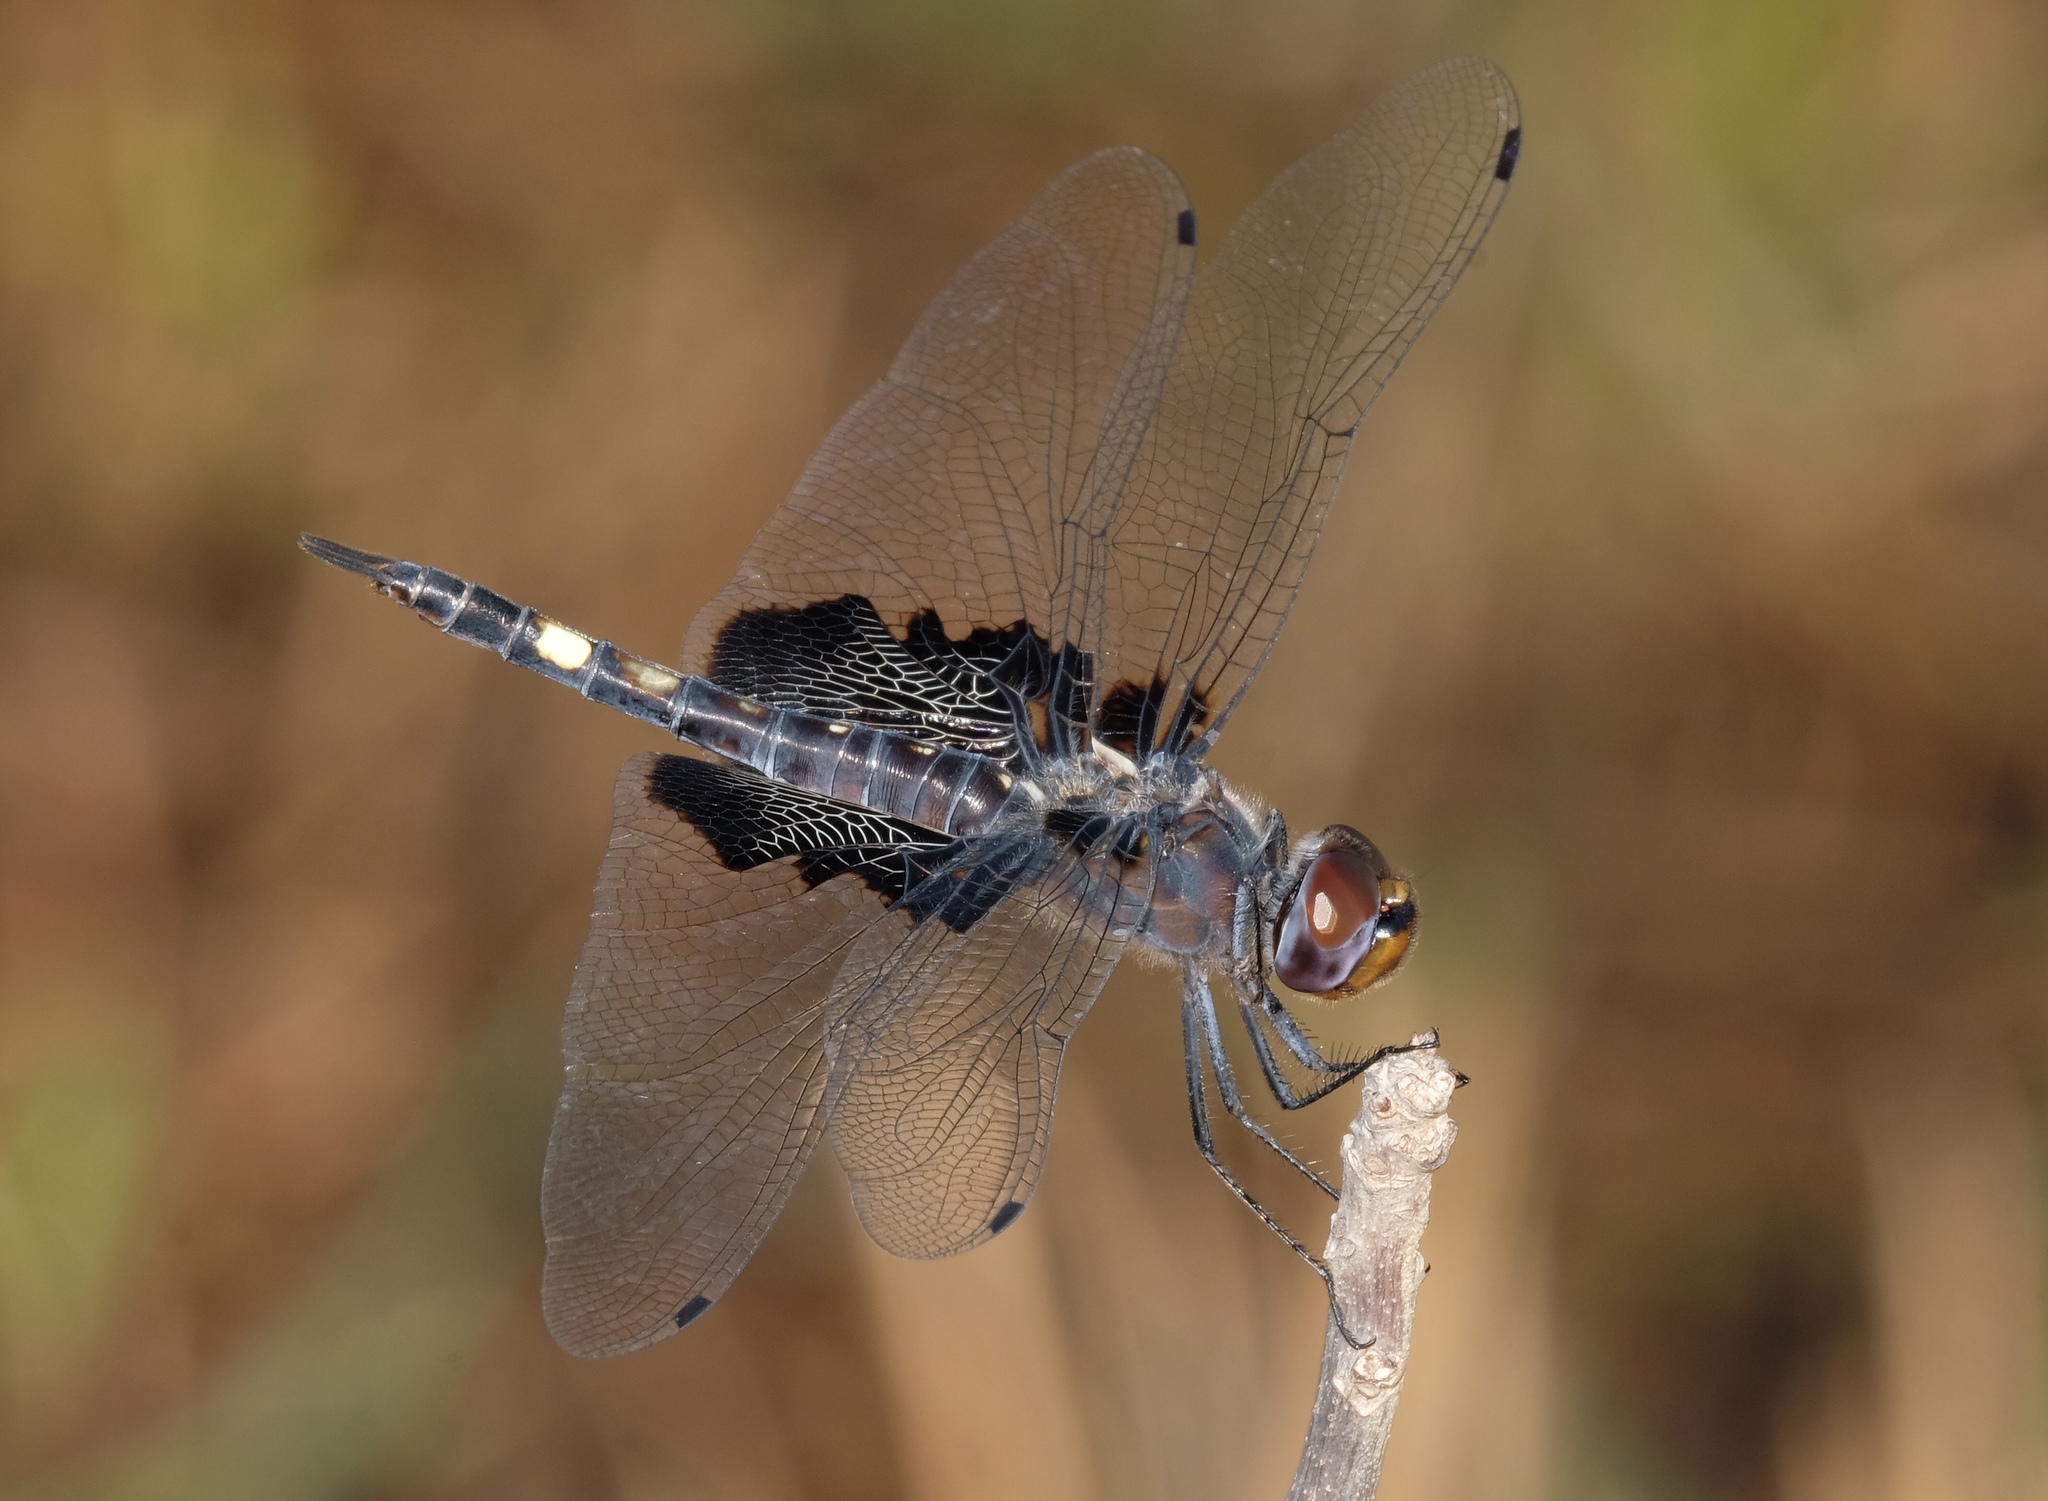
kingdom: Animalia
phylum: Arthropoda
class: Insecta
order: Odonata
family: Libellulidae
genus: Tramea
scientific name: Tramea lacerata
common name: Black saddlebags
